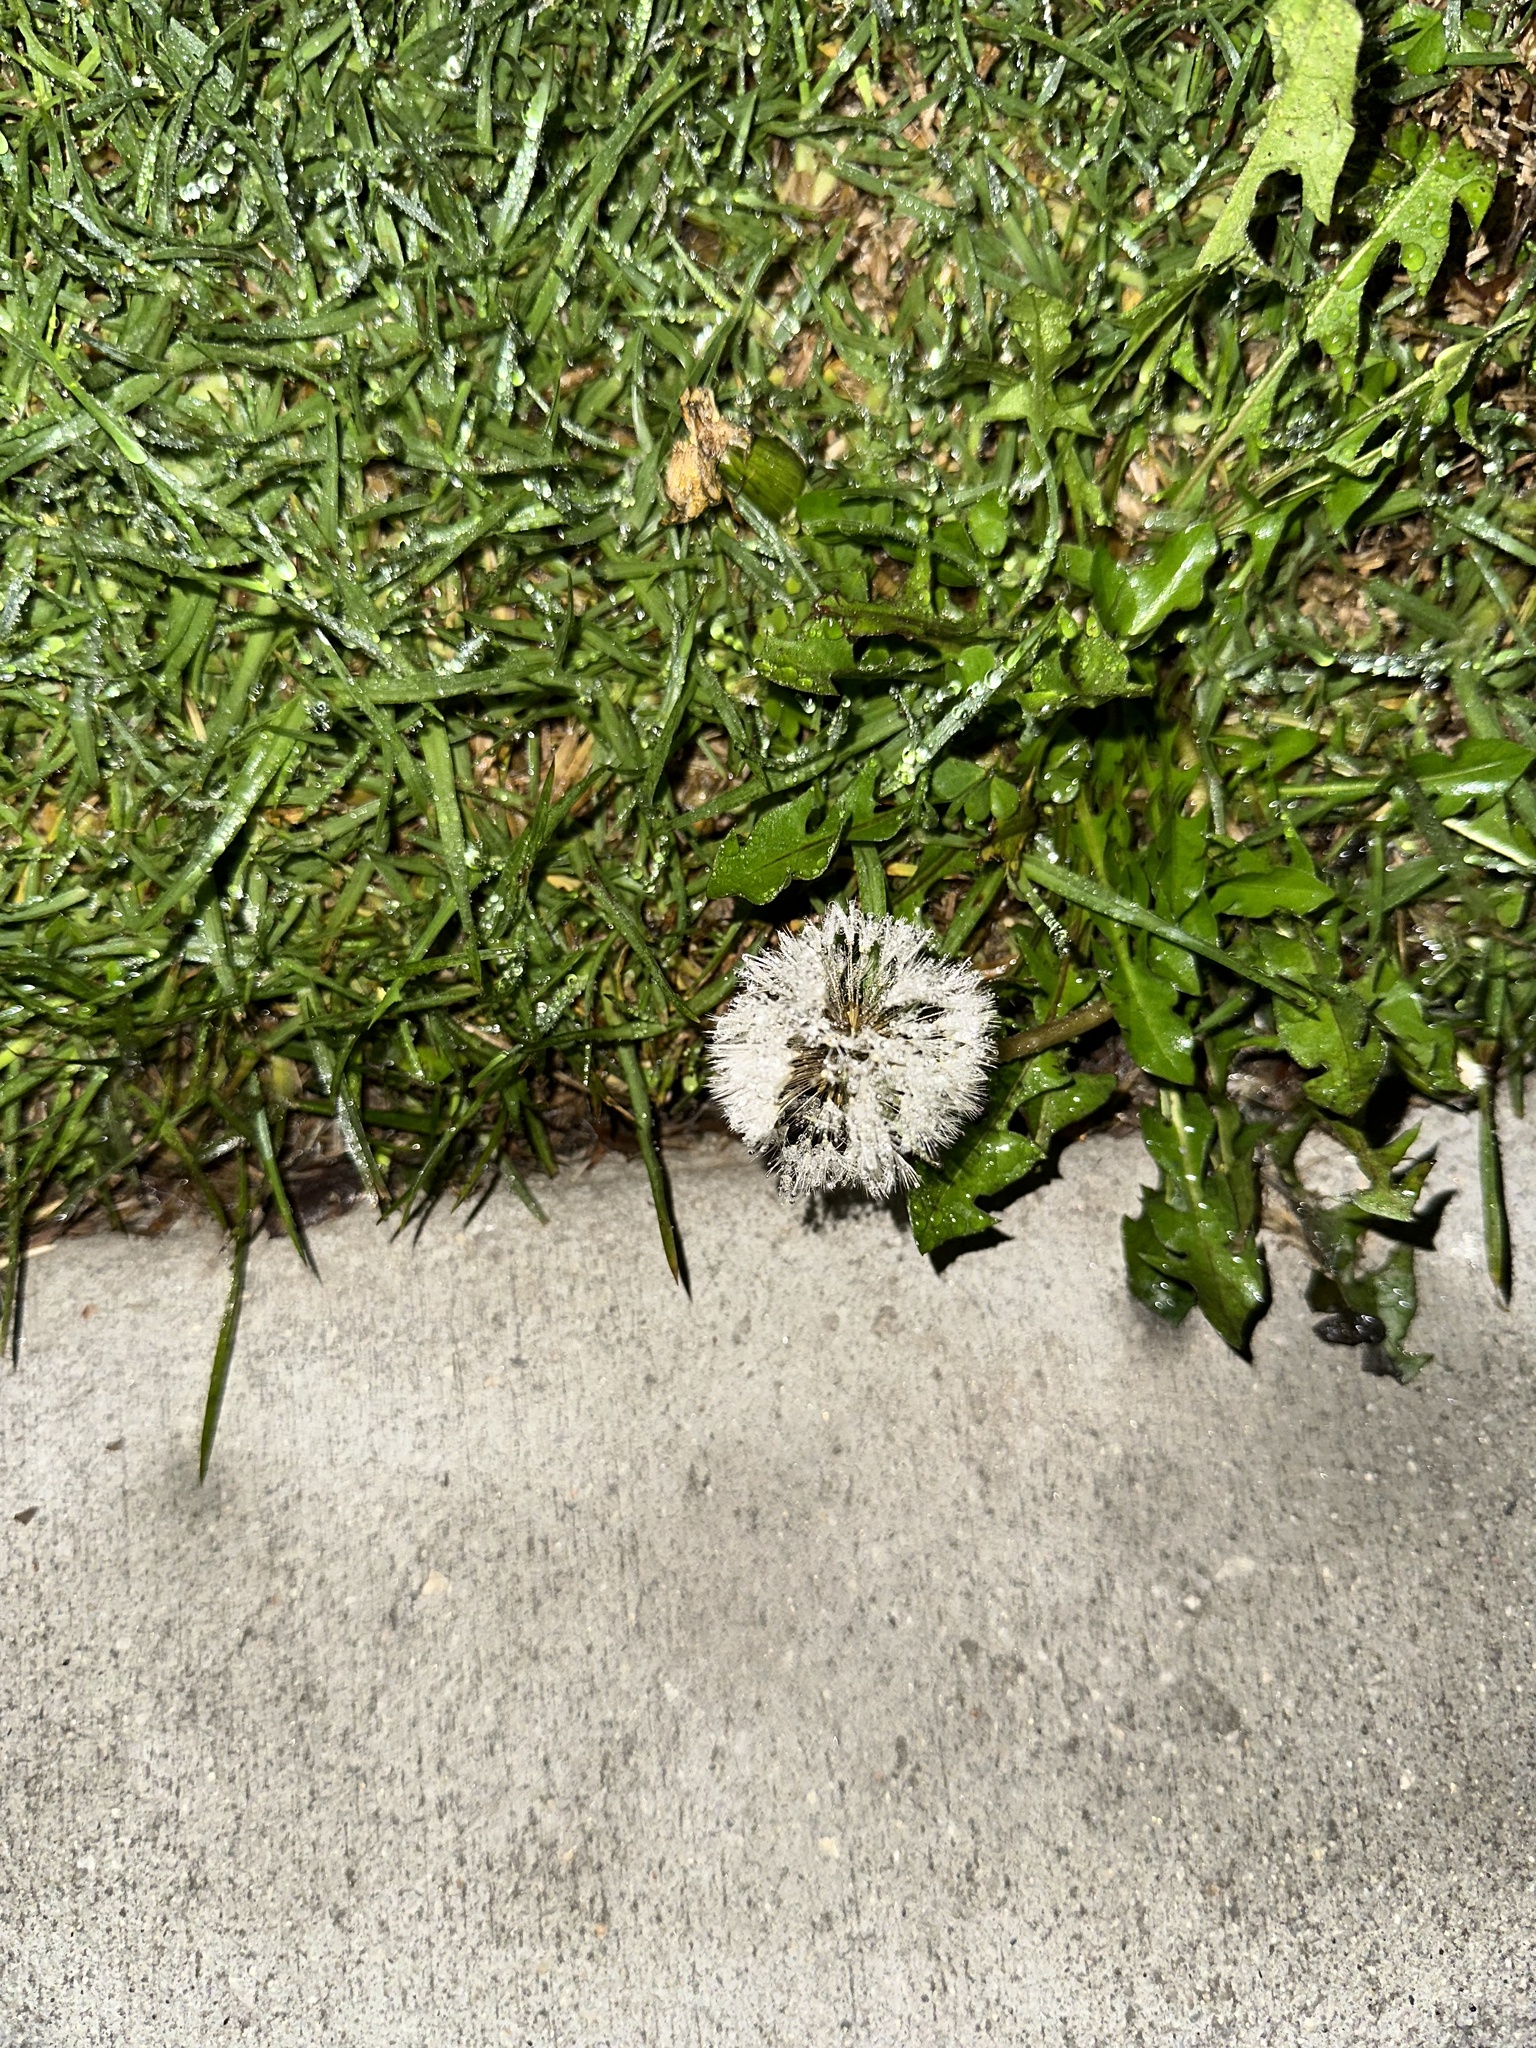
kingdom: Plantae
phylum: Tracheophyta
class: Magnoliopsida
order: Asterales
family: Asteraceae
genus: Taraxacum
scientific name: Taraxacum
